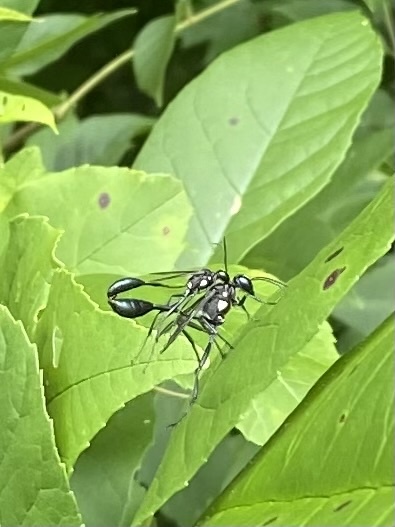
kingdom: Animalia
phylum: Arthropoda
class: Insecta
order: Hymenoptera
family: Sphecidae
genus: Eremnophila
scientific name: Eremnophila aureonotata
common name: Gold-marked thread-waisted wasp
